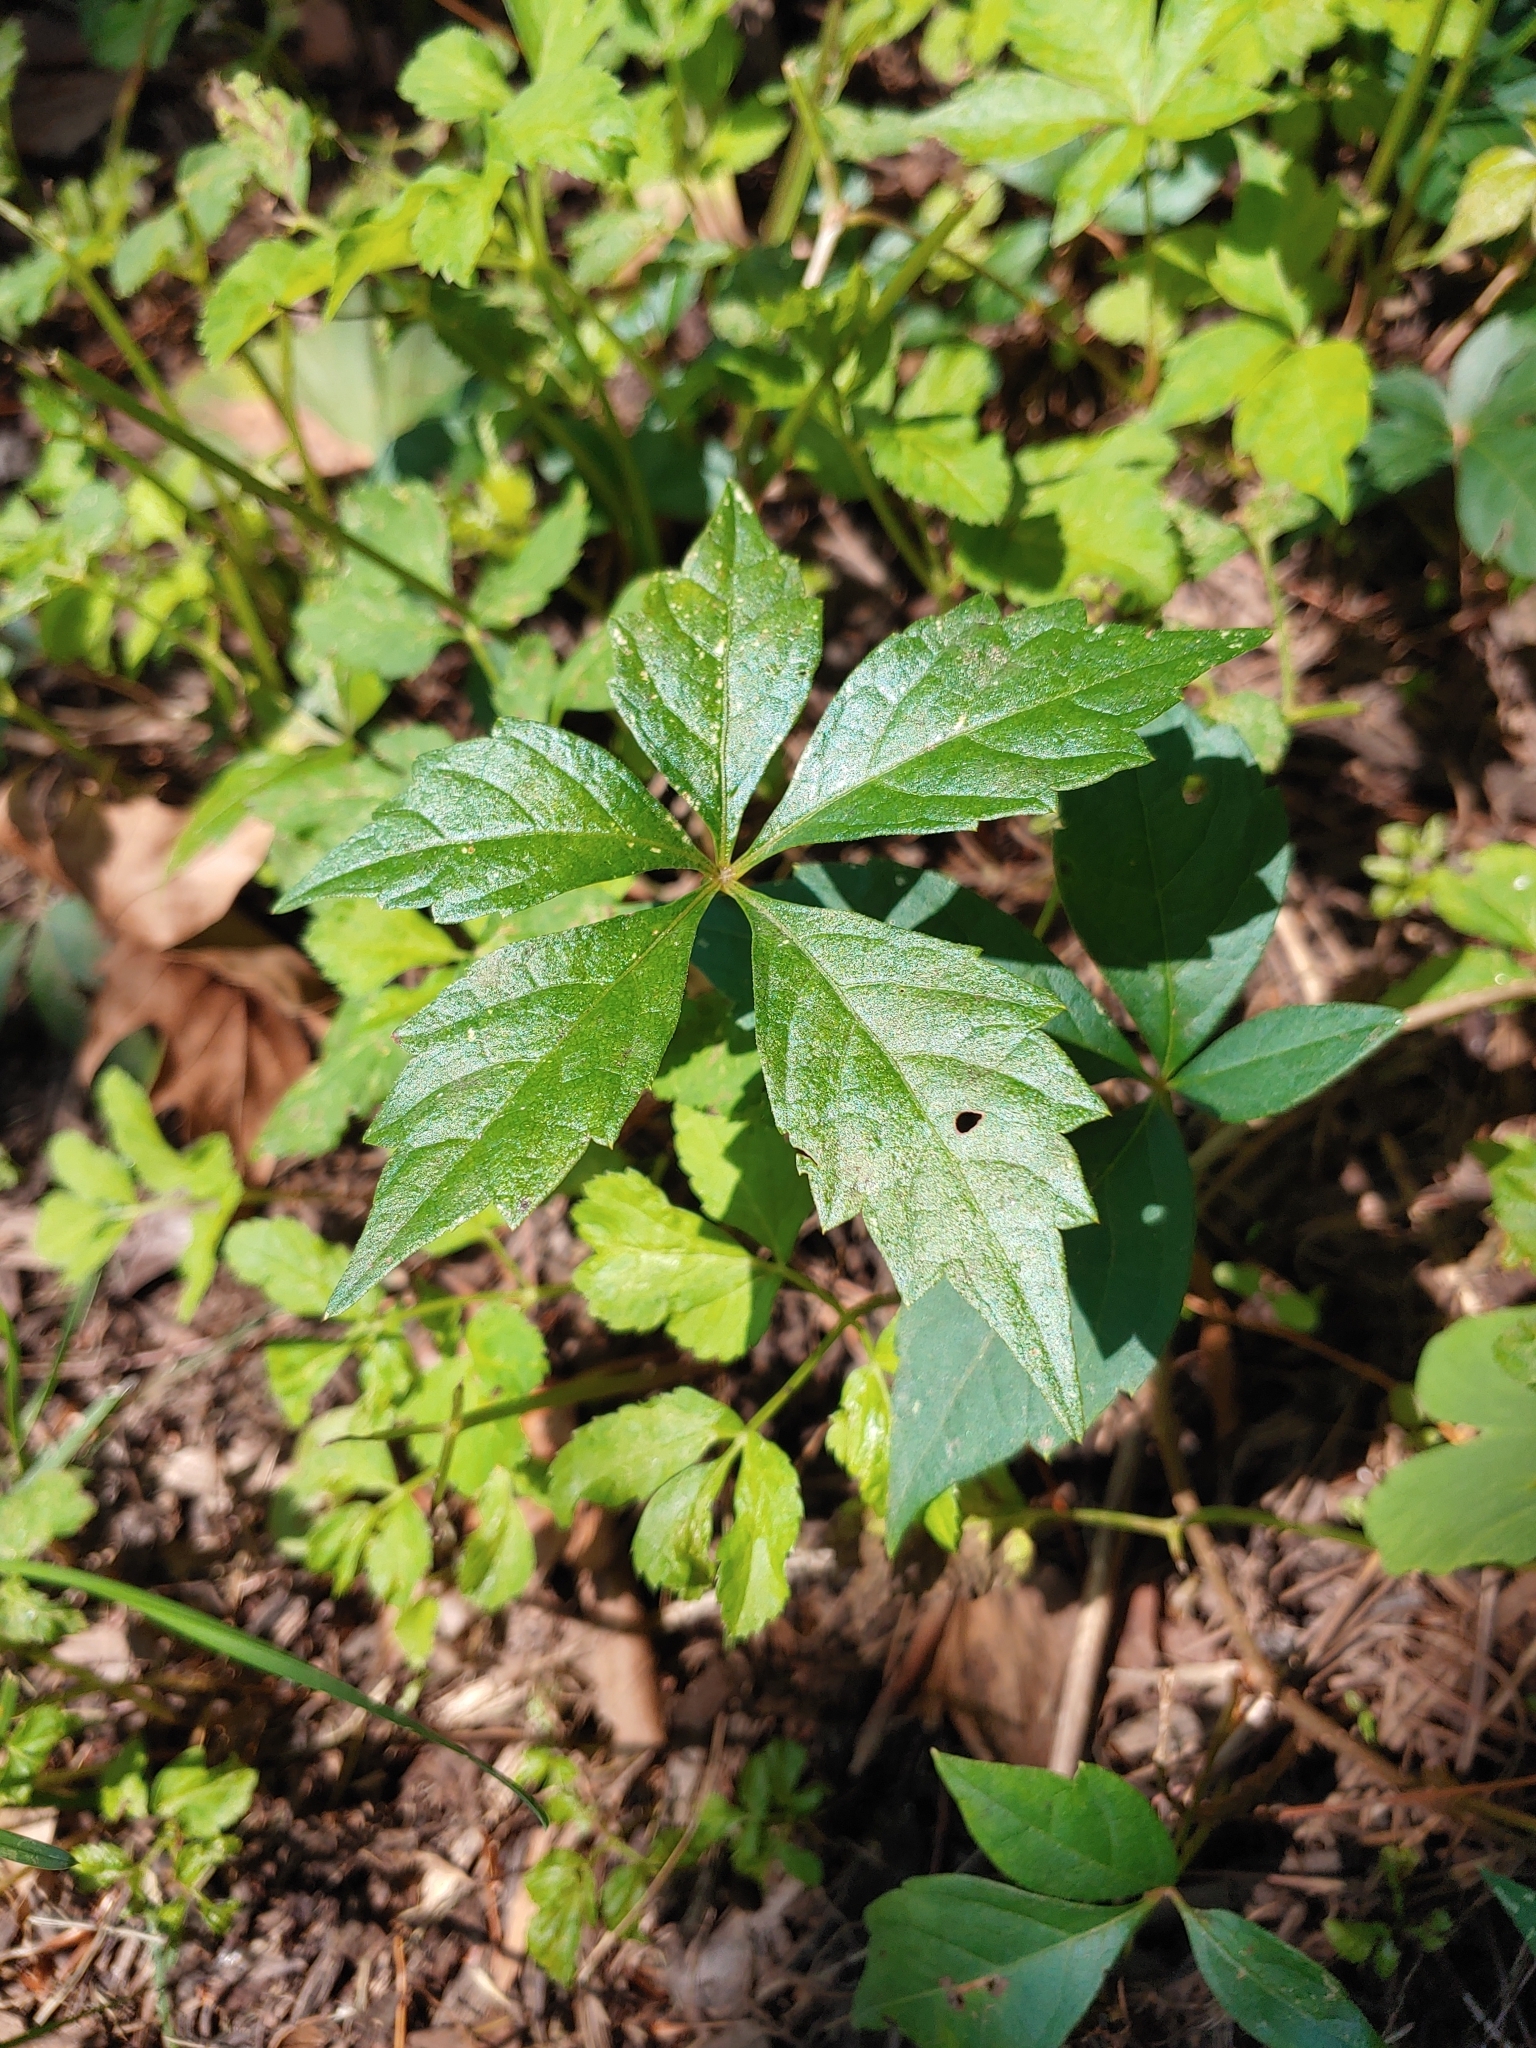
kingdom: Plantae
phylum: Tracheophyta
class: Magnoliopsida
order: Vitales
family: Vitaceae
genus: Parthenocissus
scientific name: Parthenocissus quinquefolia
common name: Virginia-creeper
